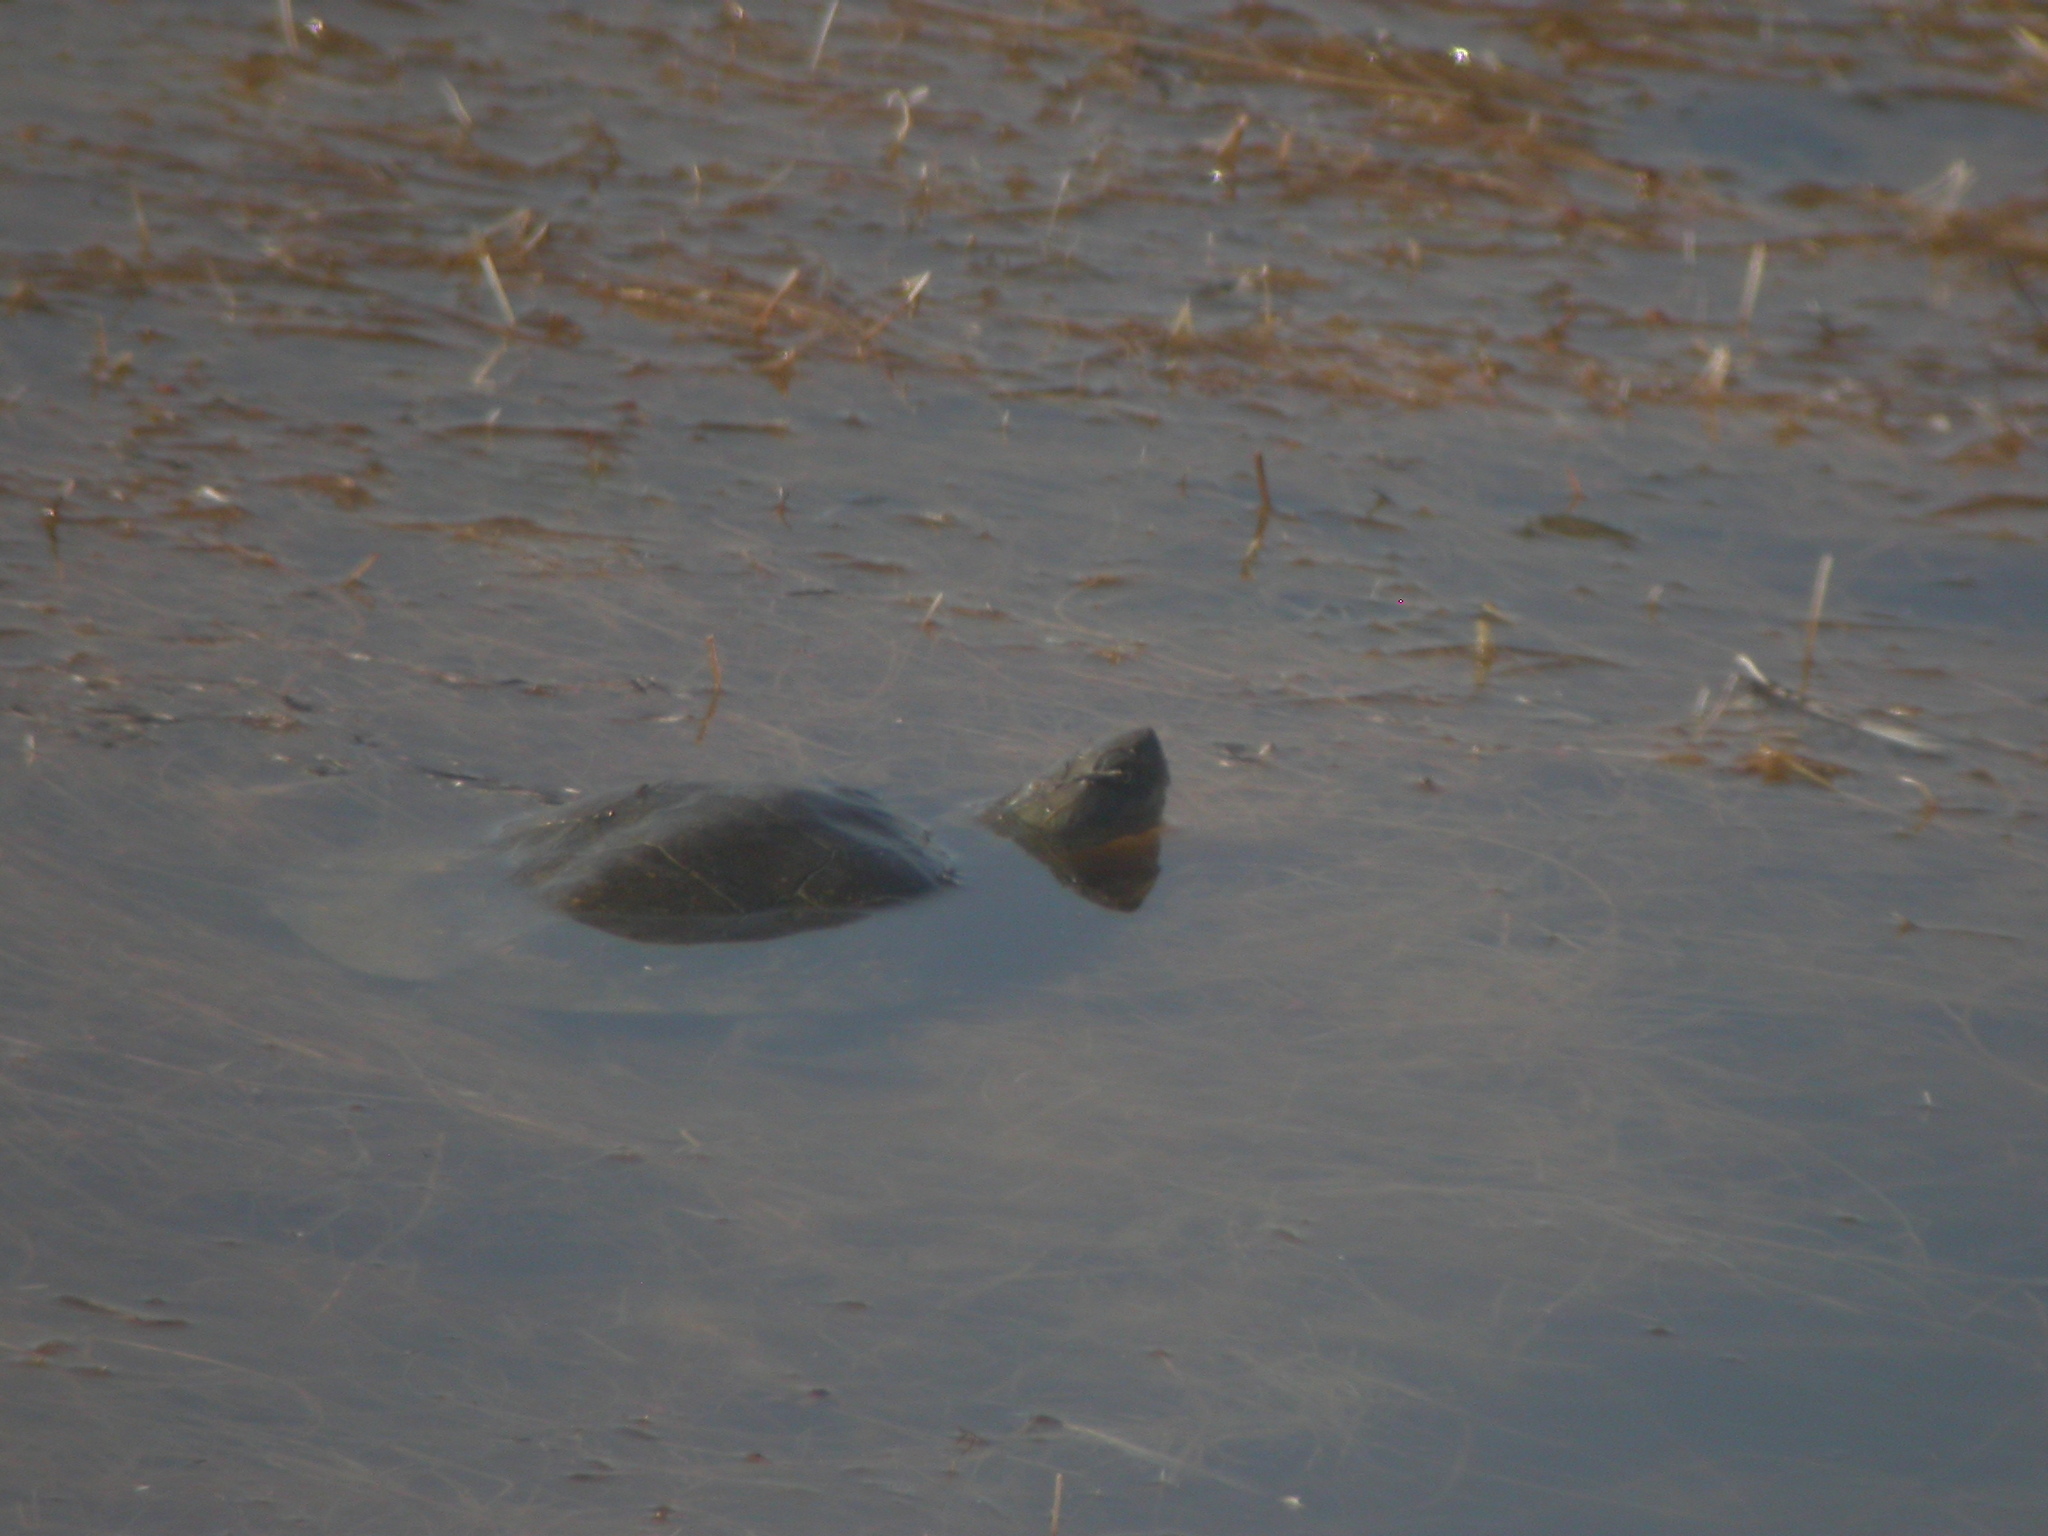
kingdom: Animalia
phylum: Chordata
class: Testudines
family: Geoemydidae
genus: Mauremys
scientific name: Mauremys leprosa
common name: Mediterranean pond turtle
